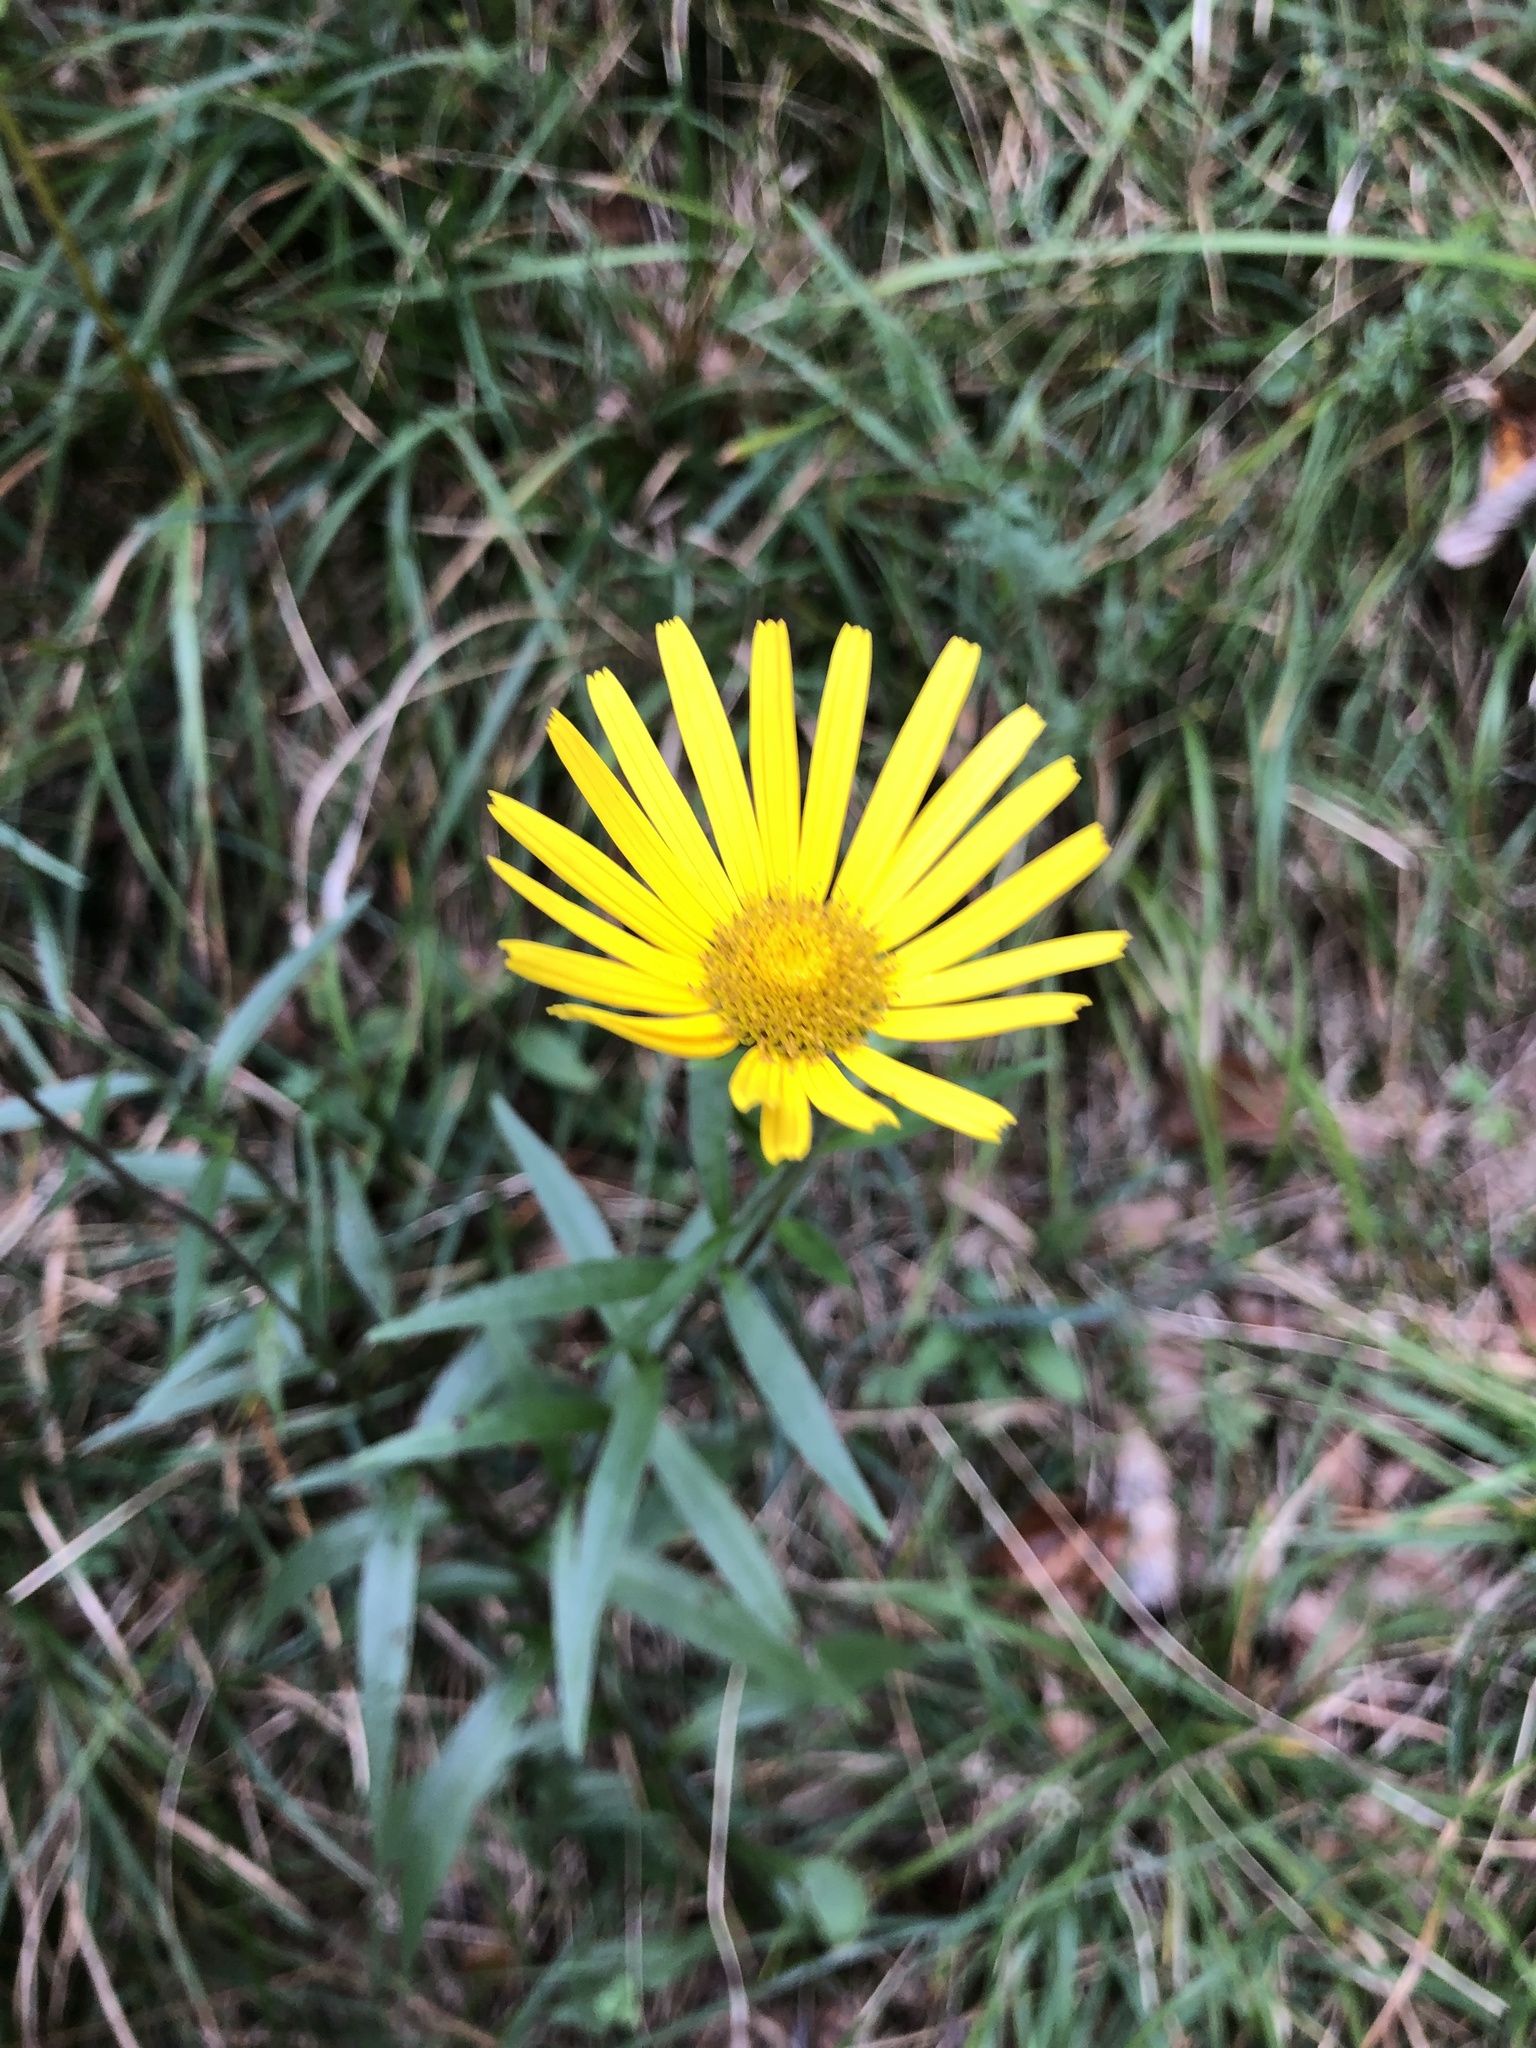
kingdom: Plantae
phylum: Tracheophyta
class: Magnoliopsida
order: Asterales
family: Asteraceae
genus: Buphthalmum
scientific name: Buphthalmum salicifolium
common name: Willow-leaved yellow-oxeye
